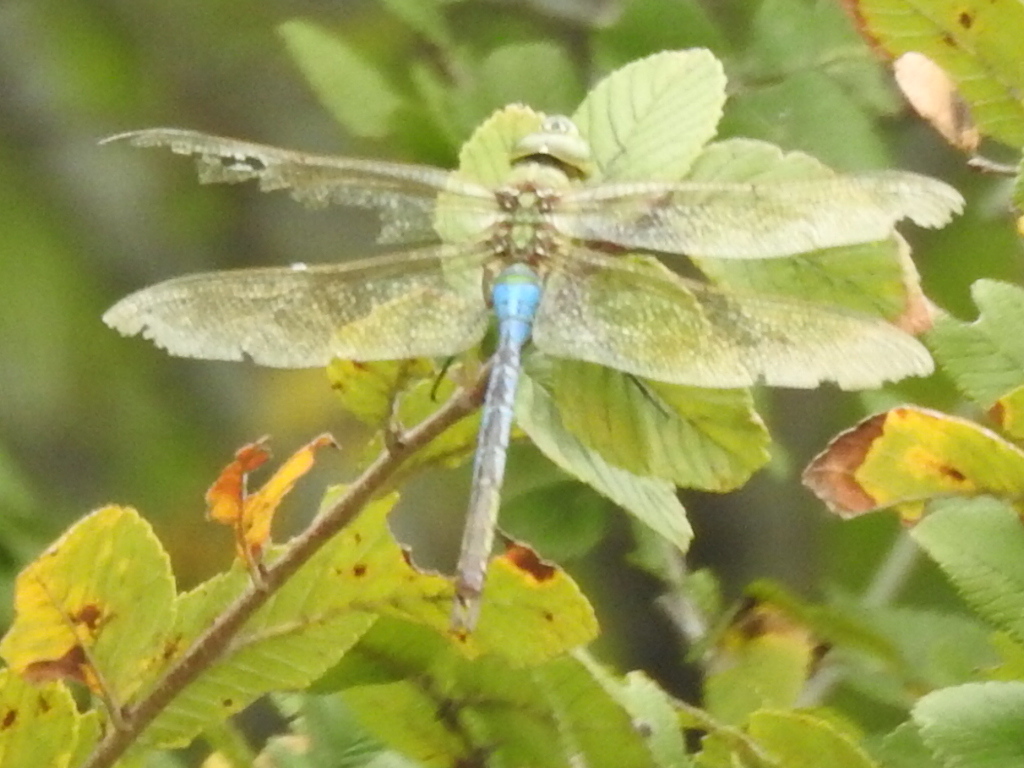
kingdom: Animalia
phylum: Arthropoda
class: Insecta
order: Odonata
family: Aeshnidae
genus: Anax
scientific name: Anax junius
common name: Common green darner
